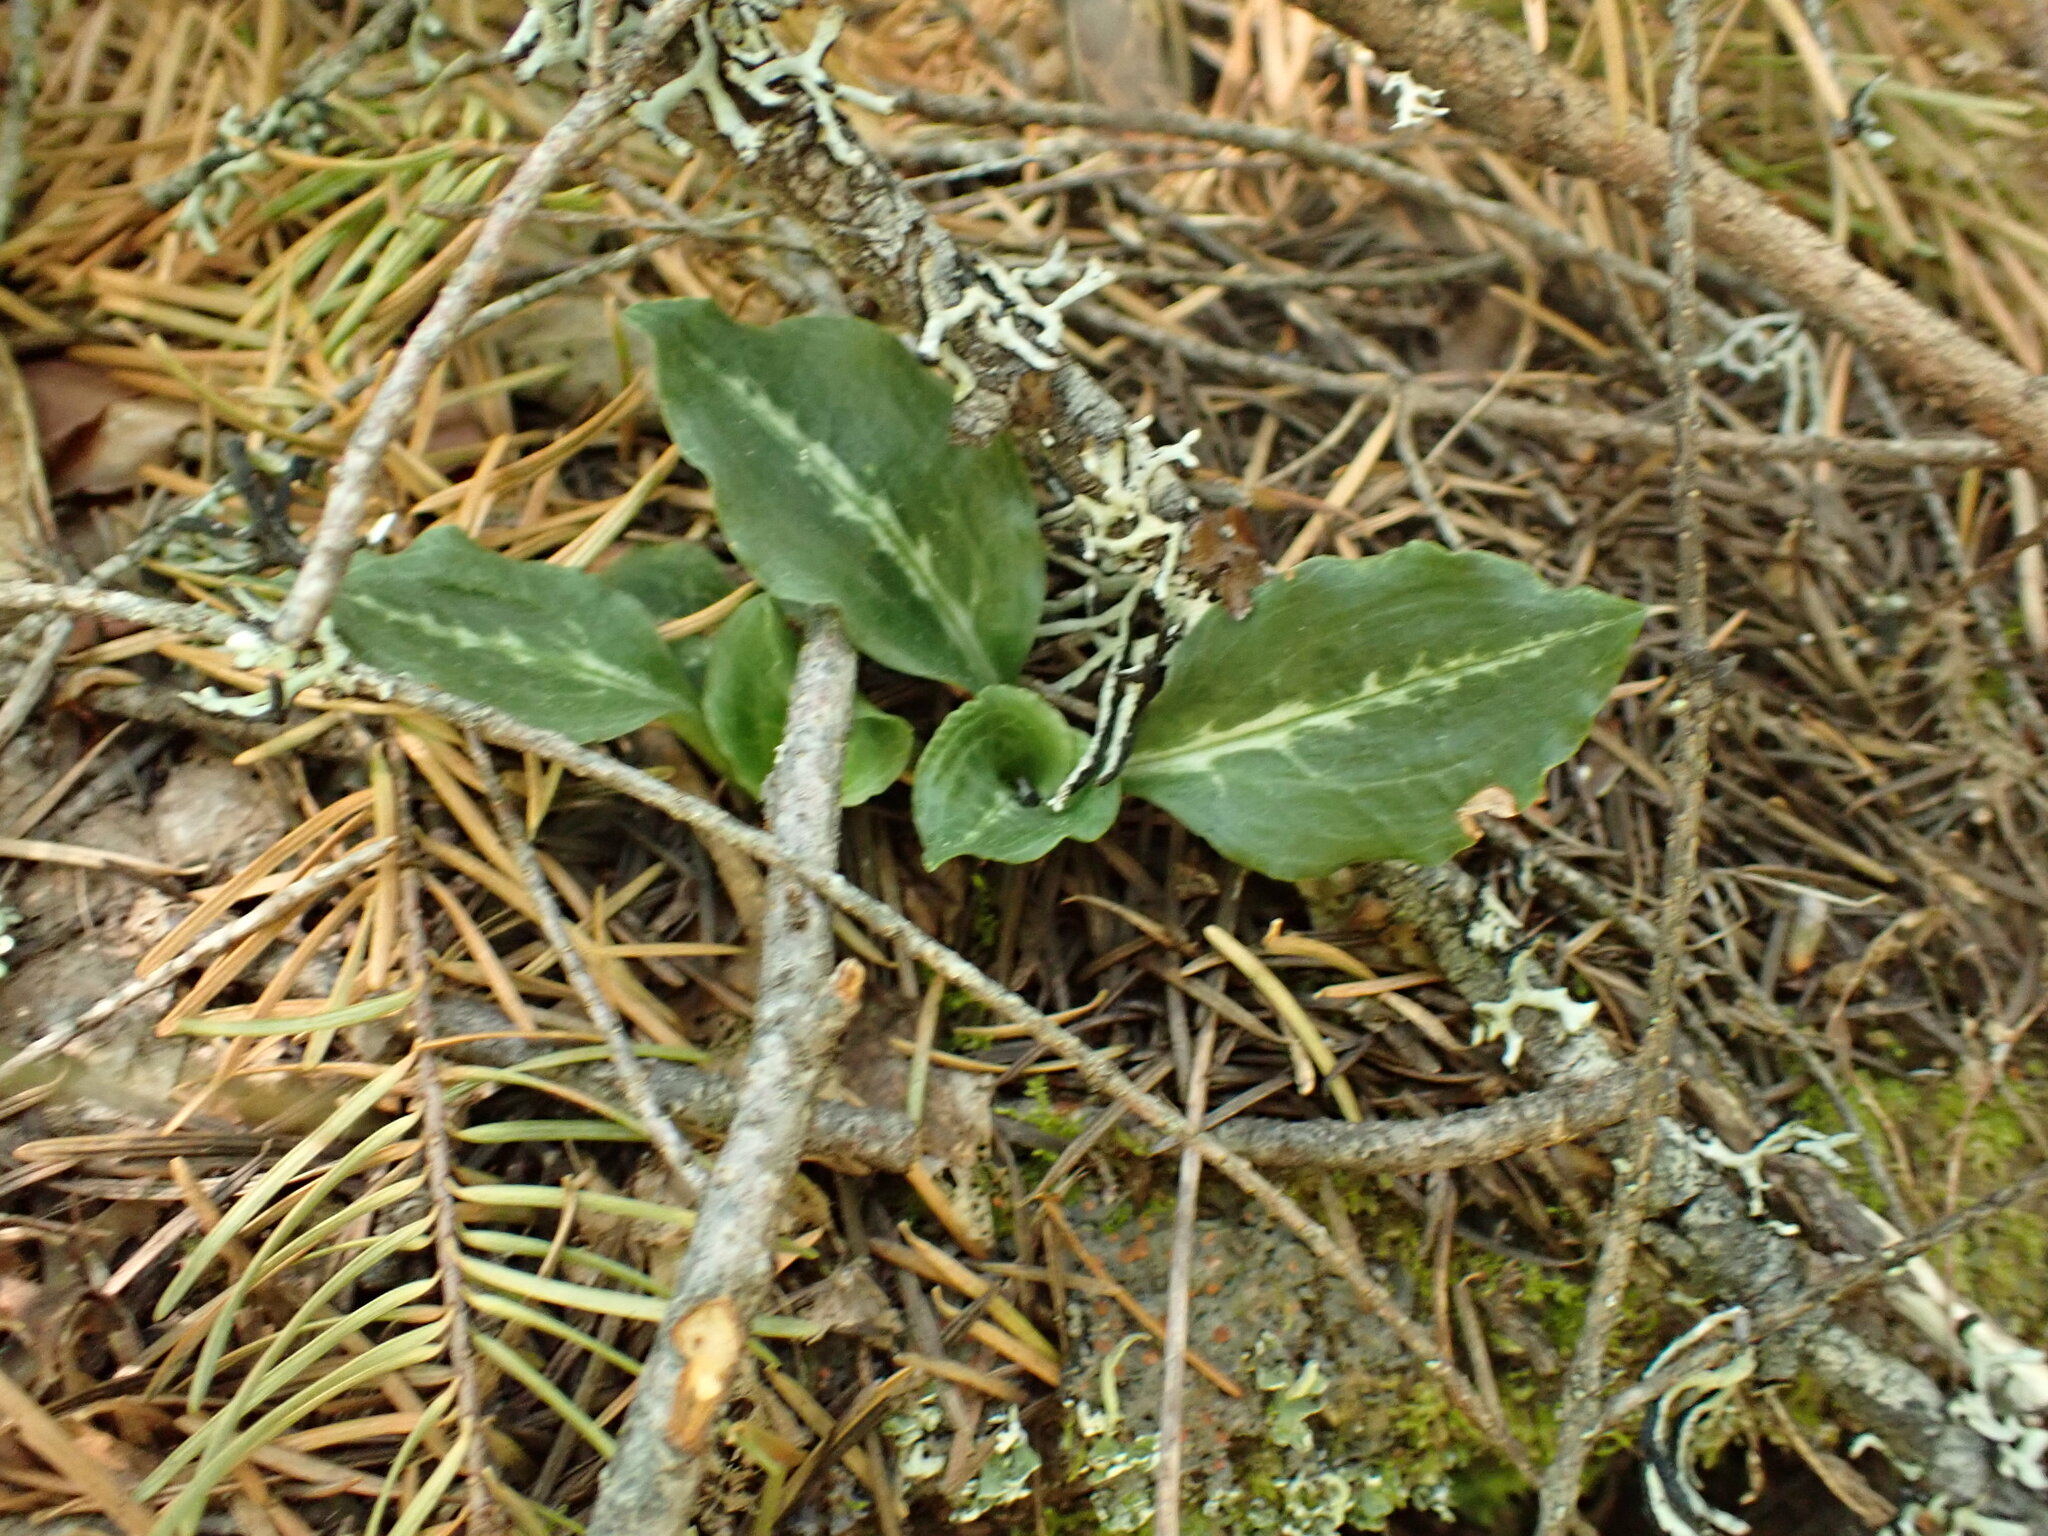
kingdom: Plantae
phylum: Tracheophyta
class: Liliopsida
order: Asparagales
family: Orchidaceae
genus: Goodyera
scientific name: Goodyera oblongifolia
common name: Giant rattlesnake-plantain
